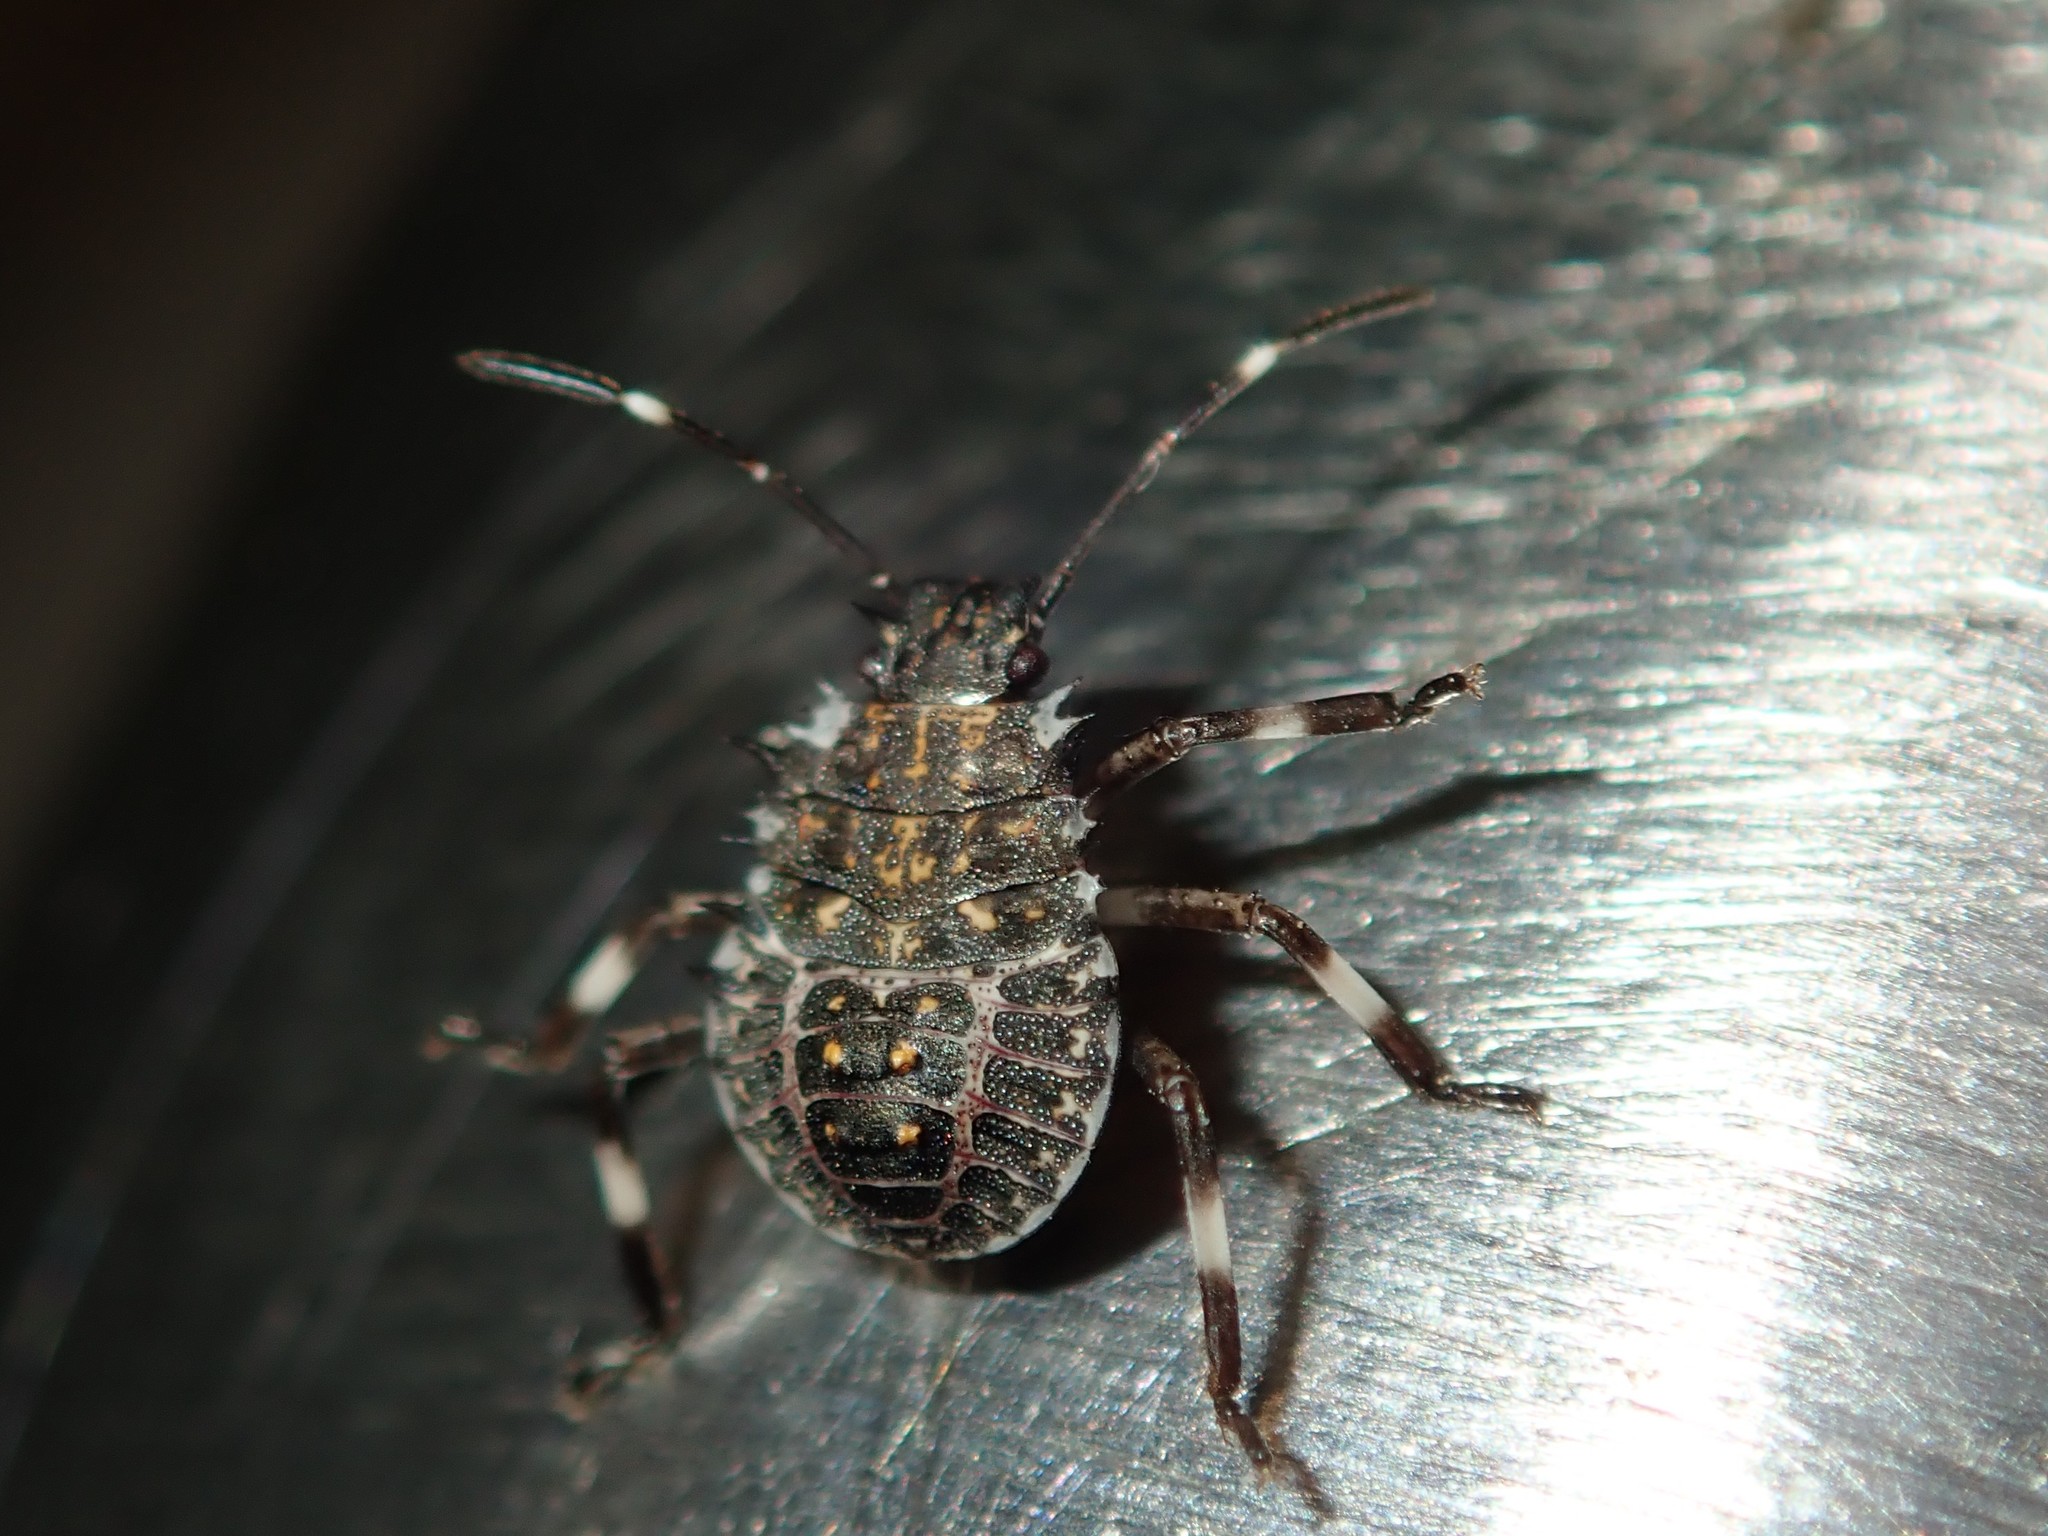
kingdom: Animalia
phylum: Arthropoda
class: Insecta
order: Hemiptera
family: Pentatomidae
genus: Halyomorpha
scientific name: Halyomorpha halys
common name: Brown marmorated stink bug
